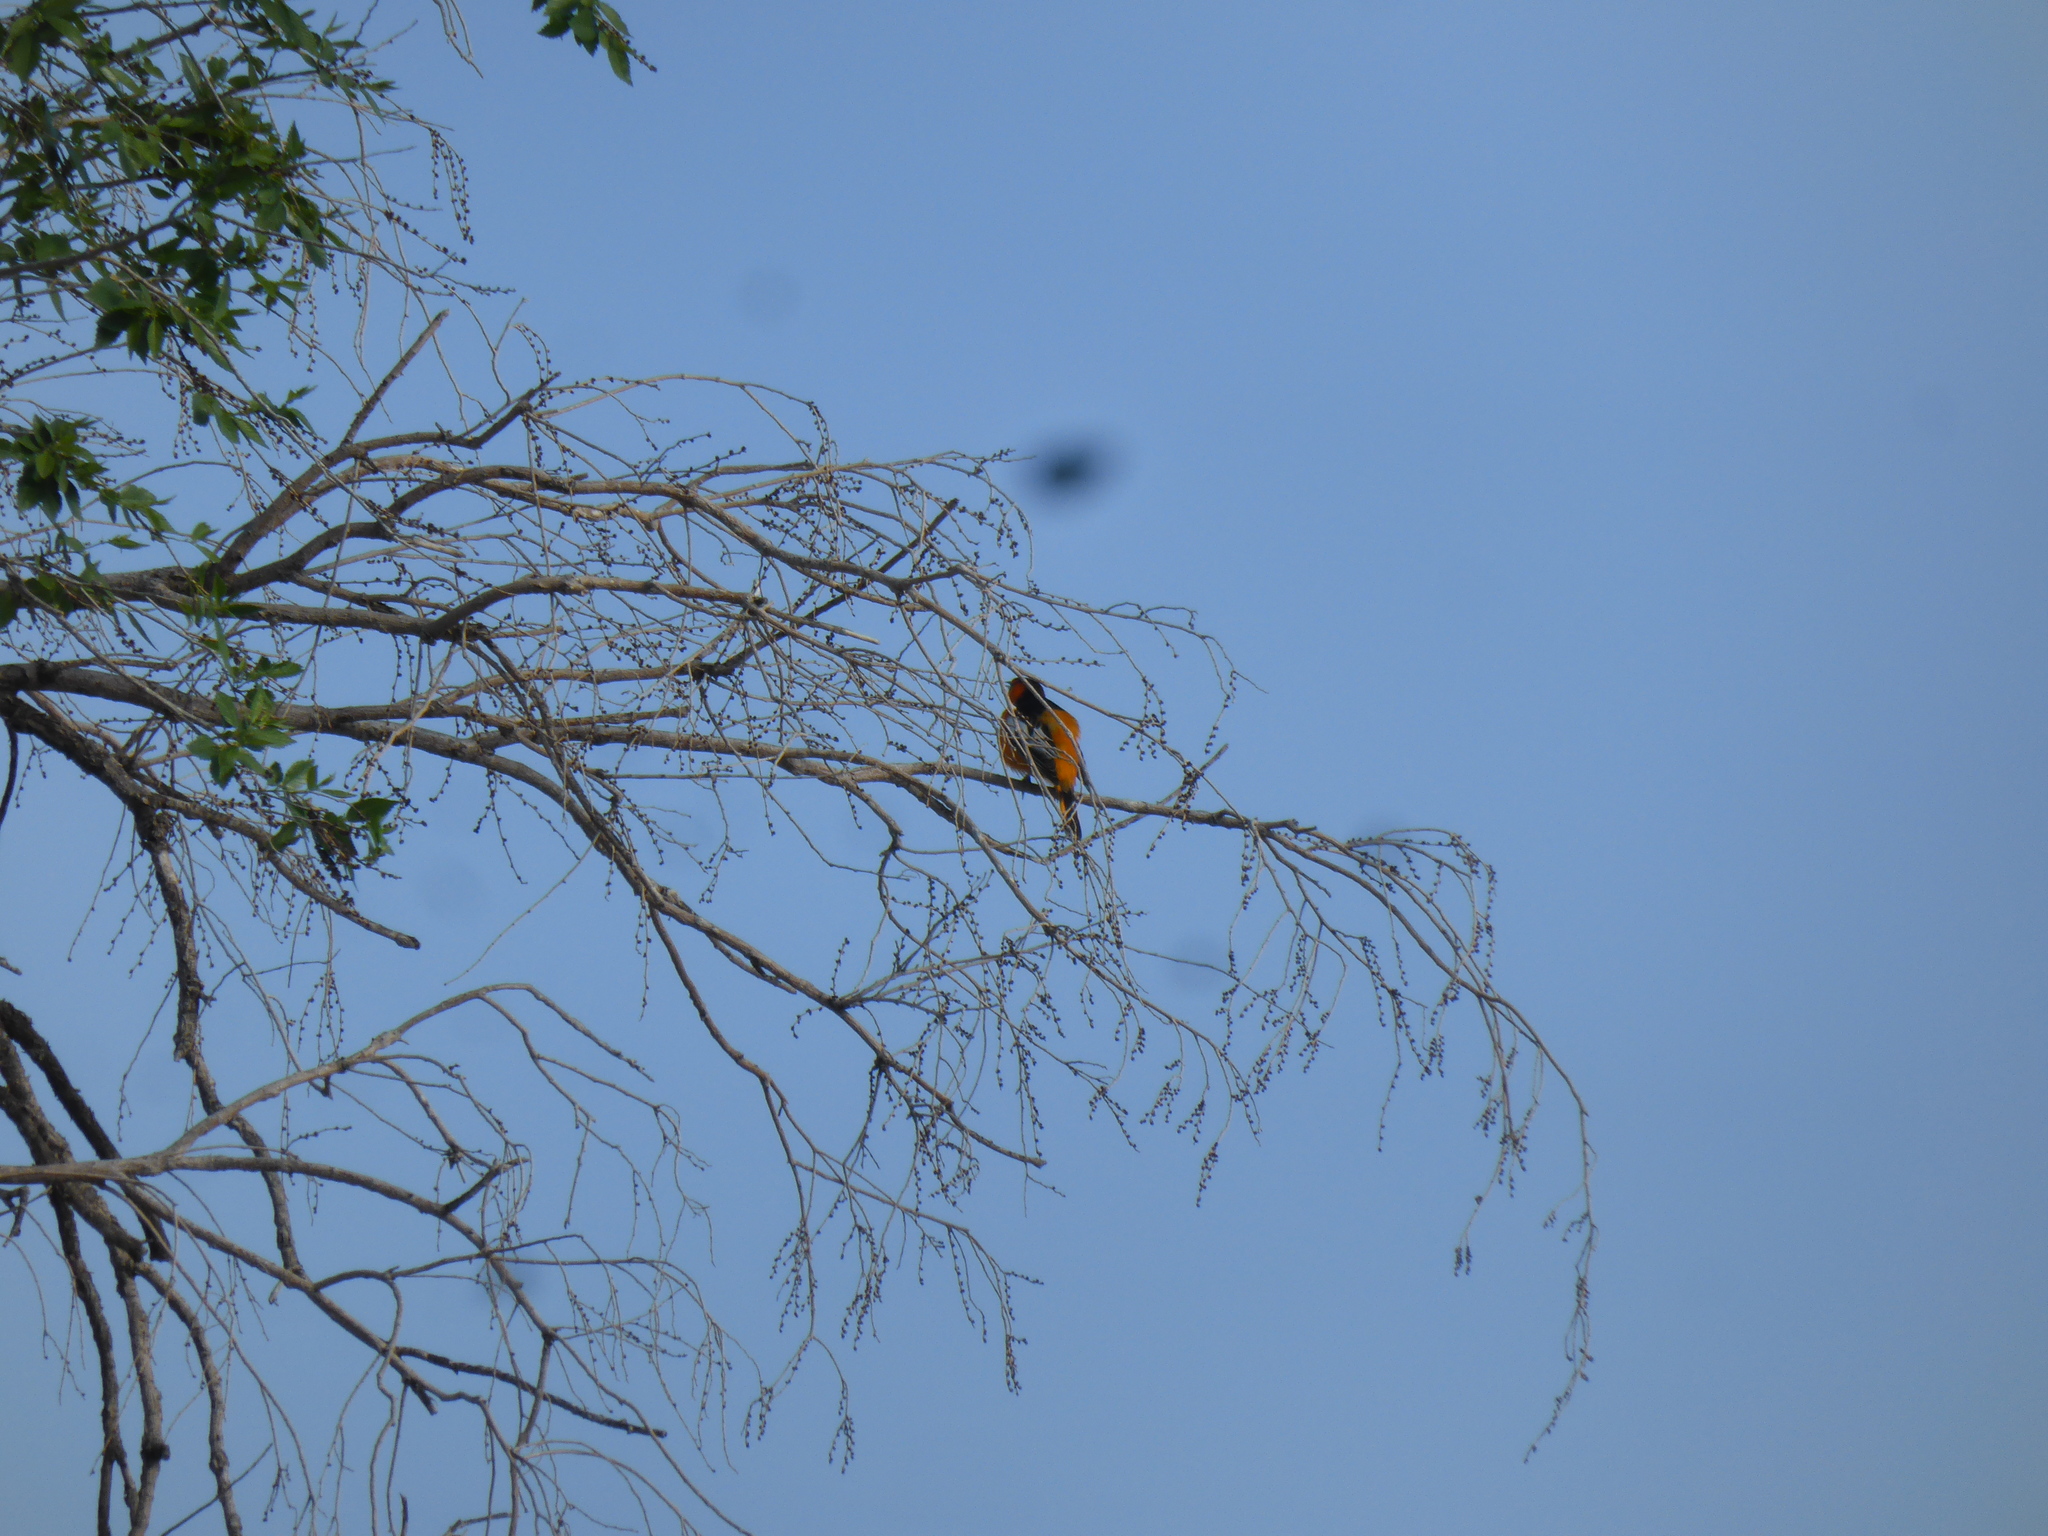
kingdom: Animalia
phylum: Chordata
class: Aves
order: Passeriformes
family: Icteridae
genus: Icterus
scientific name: Icterus bullockii
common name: Bullock's oriole
